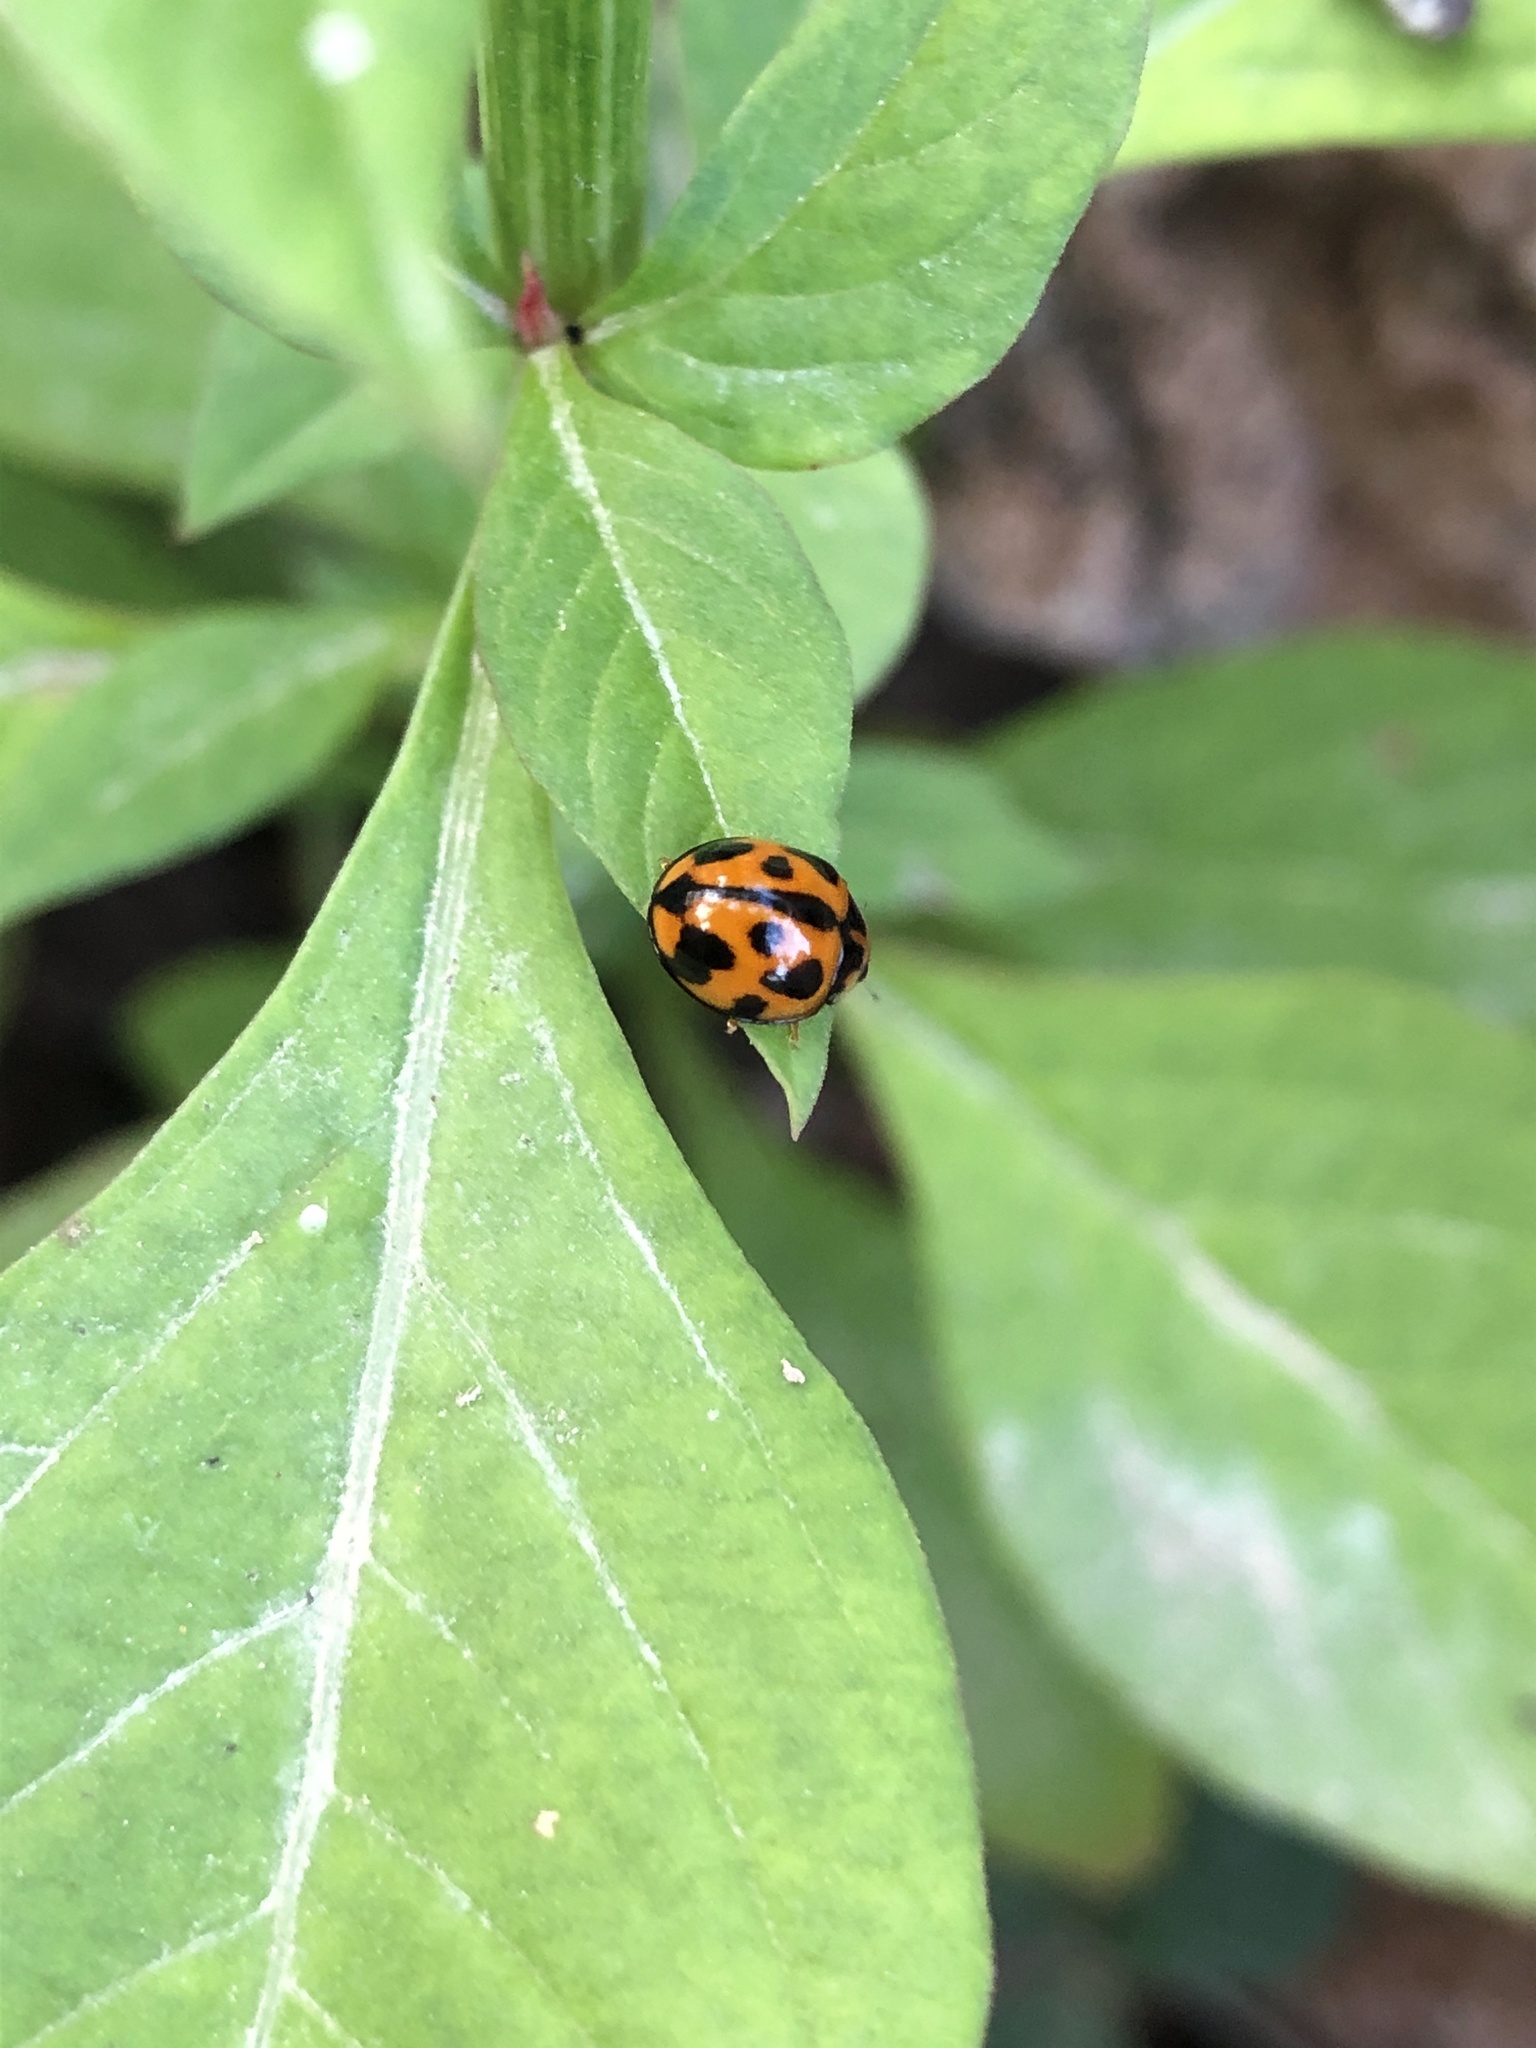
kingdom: Animalia
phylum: Arthropoda
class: Insecta
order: Coleoptera
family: Coccinellidae
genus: Coelophora
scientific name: Coelophora inaequalis
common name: Common australian lady beetle
